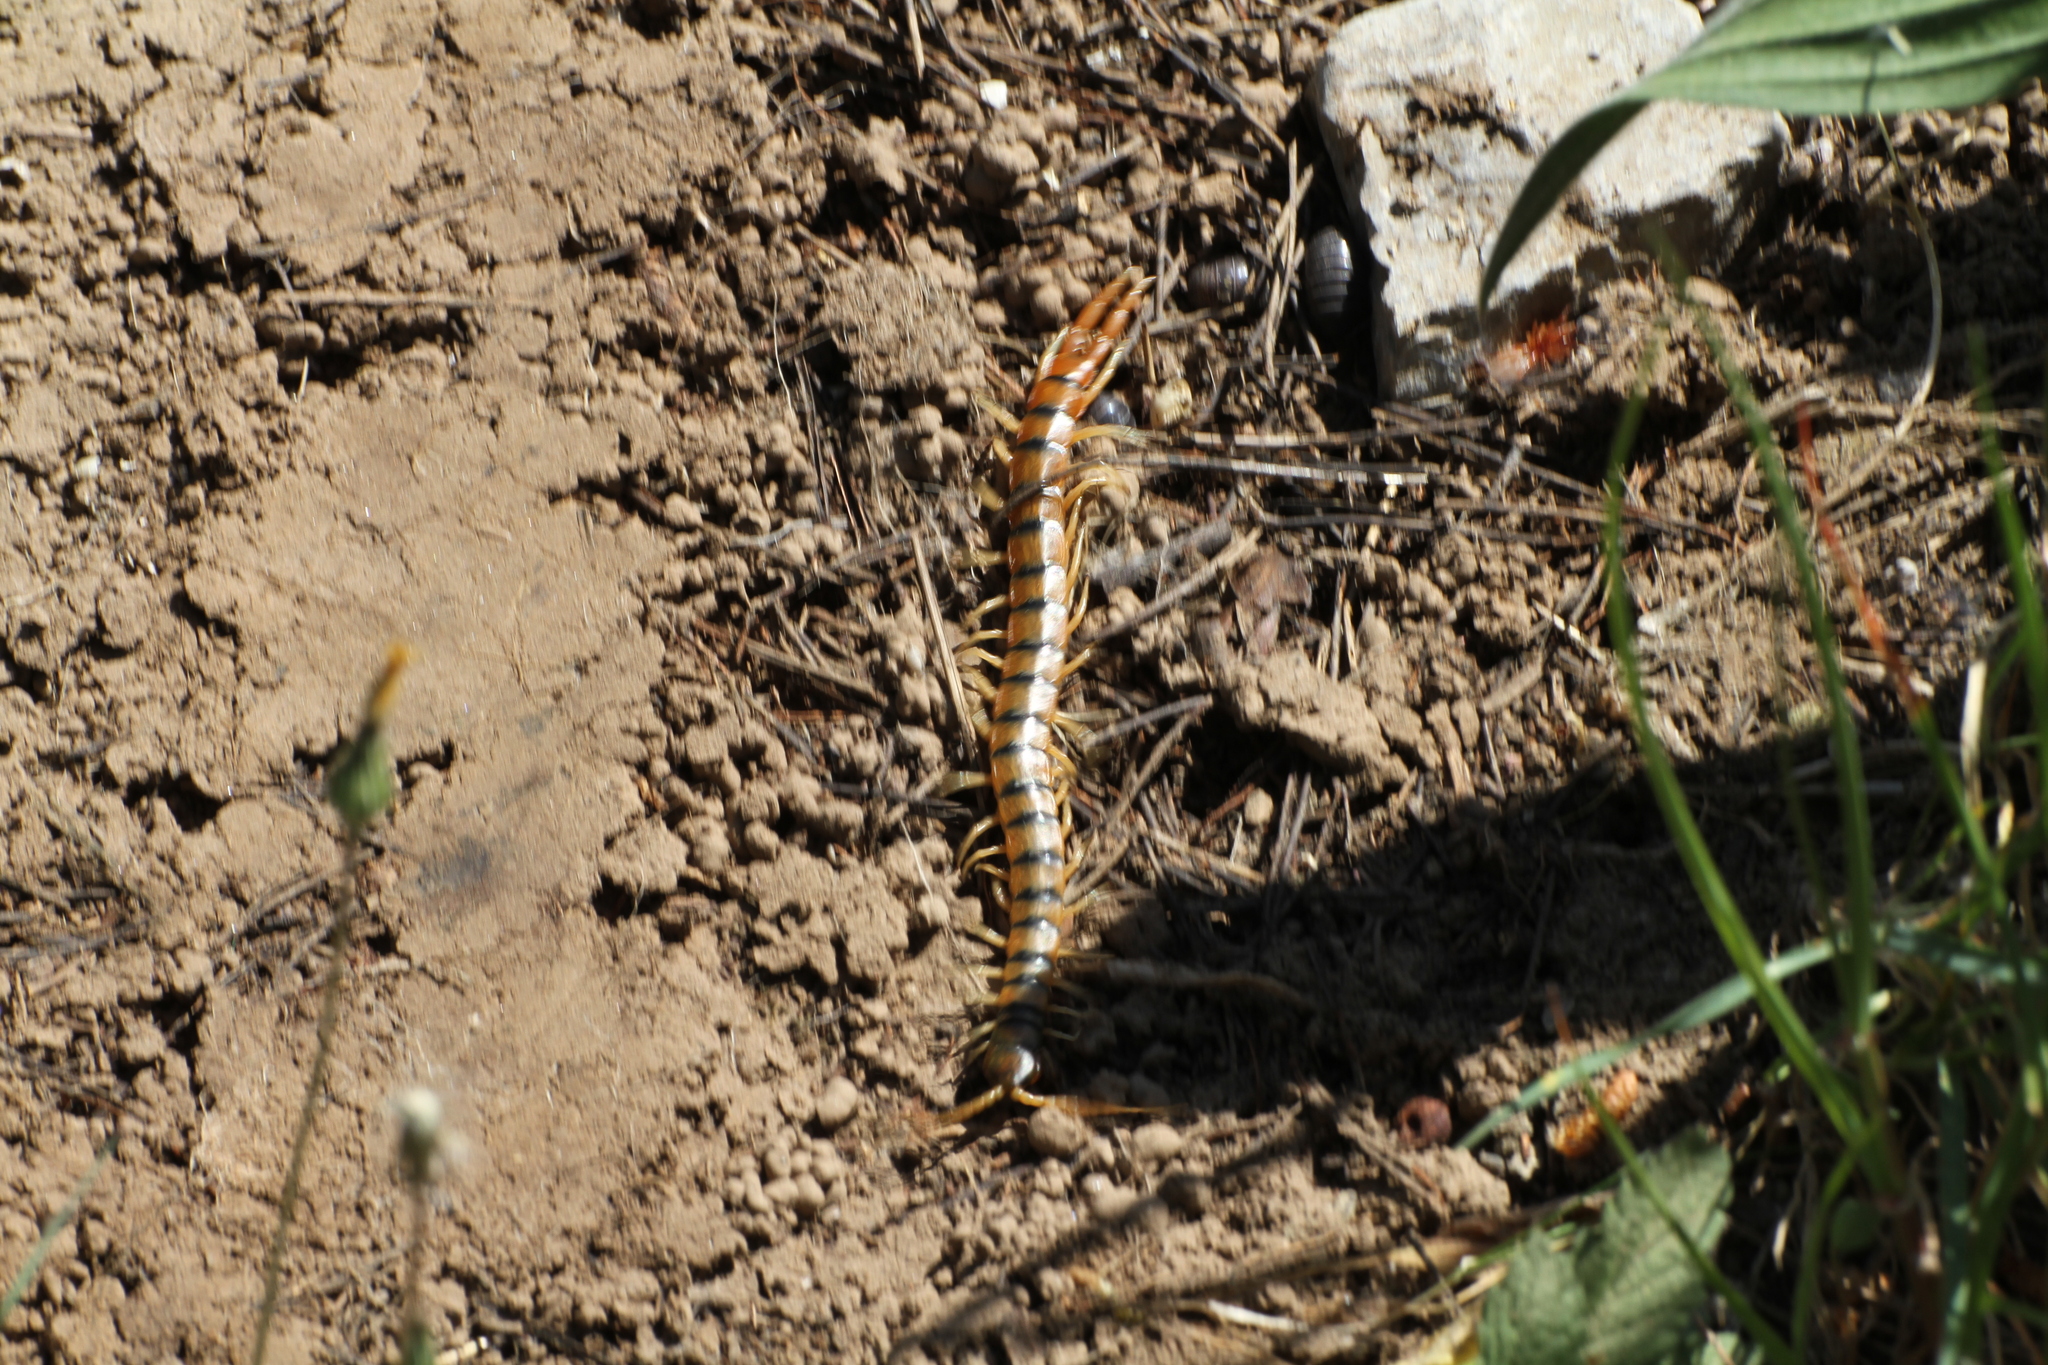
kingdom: Animalia
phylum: Arthropoda
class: Chilopoda
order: Scolopendromorpha
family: Scolopendridae
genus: Scolopendra
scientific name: Scolopendra cingulata
